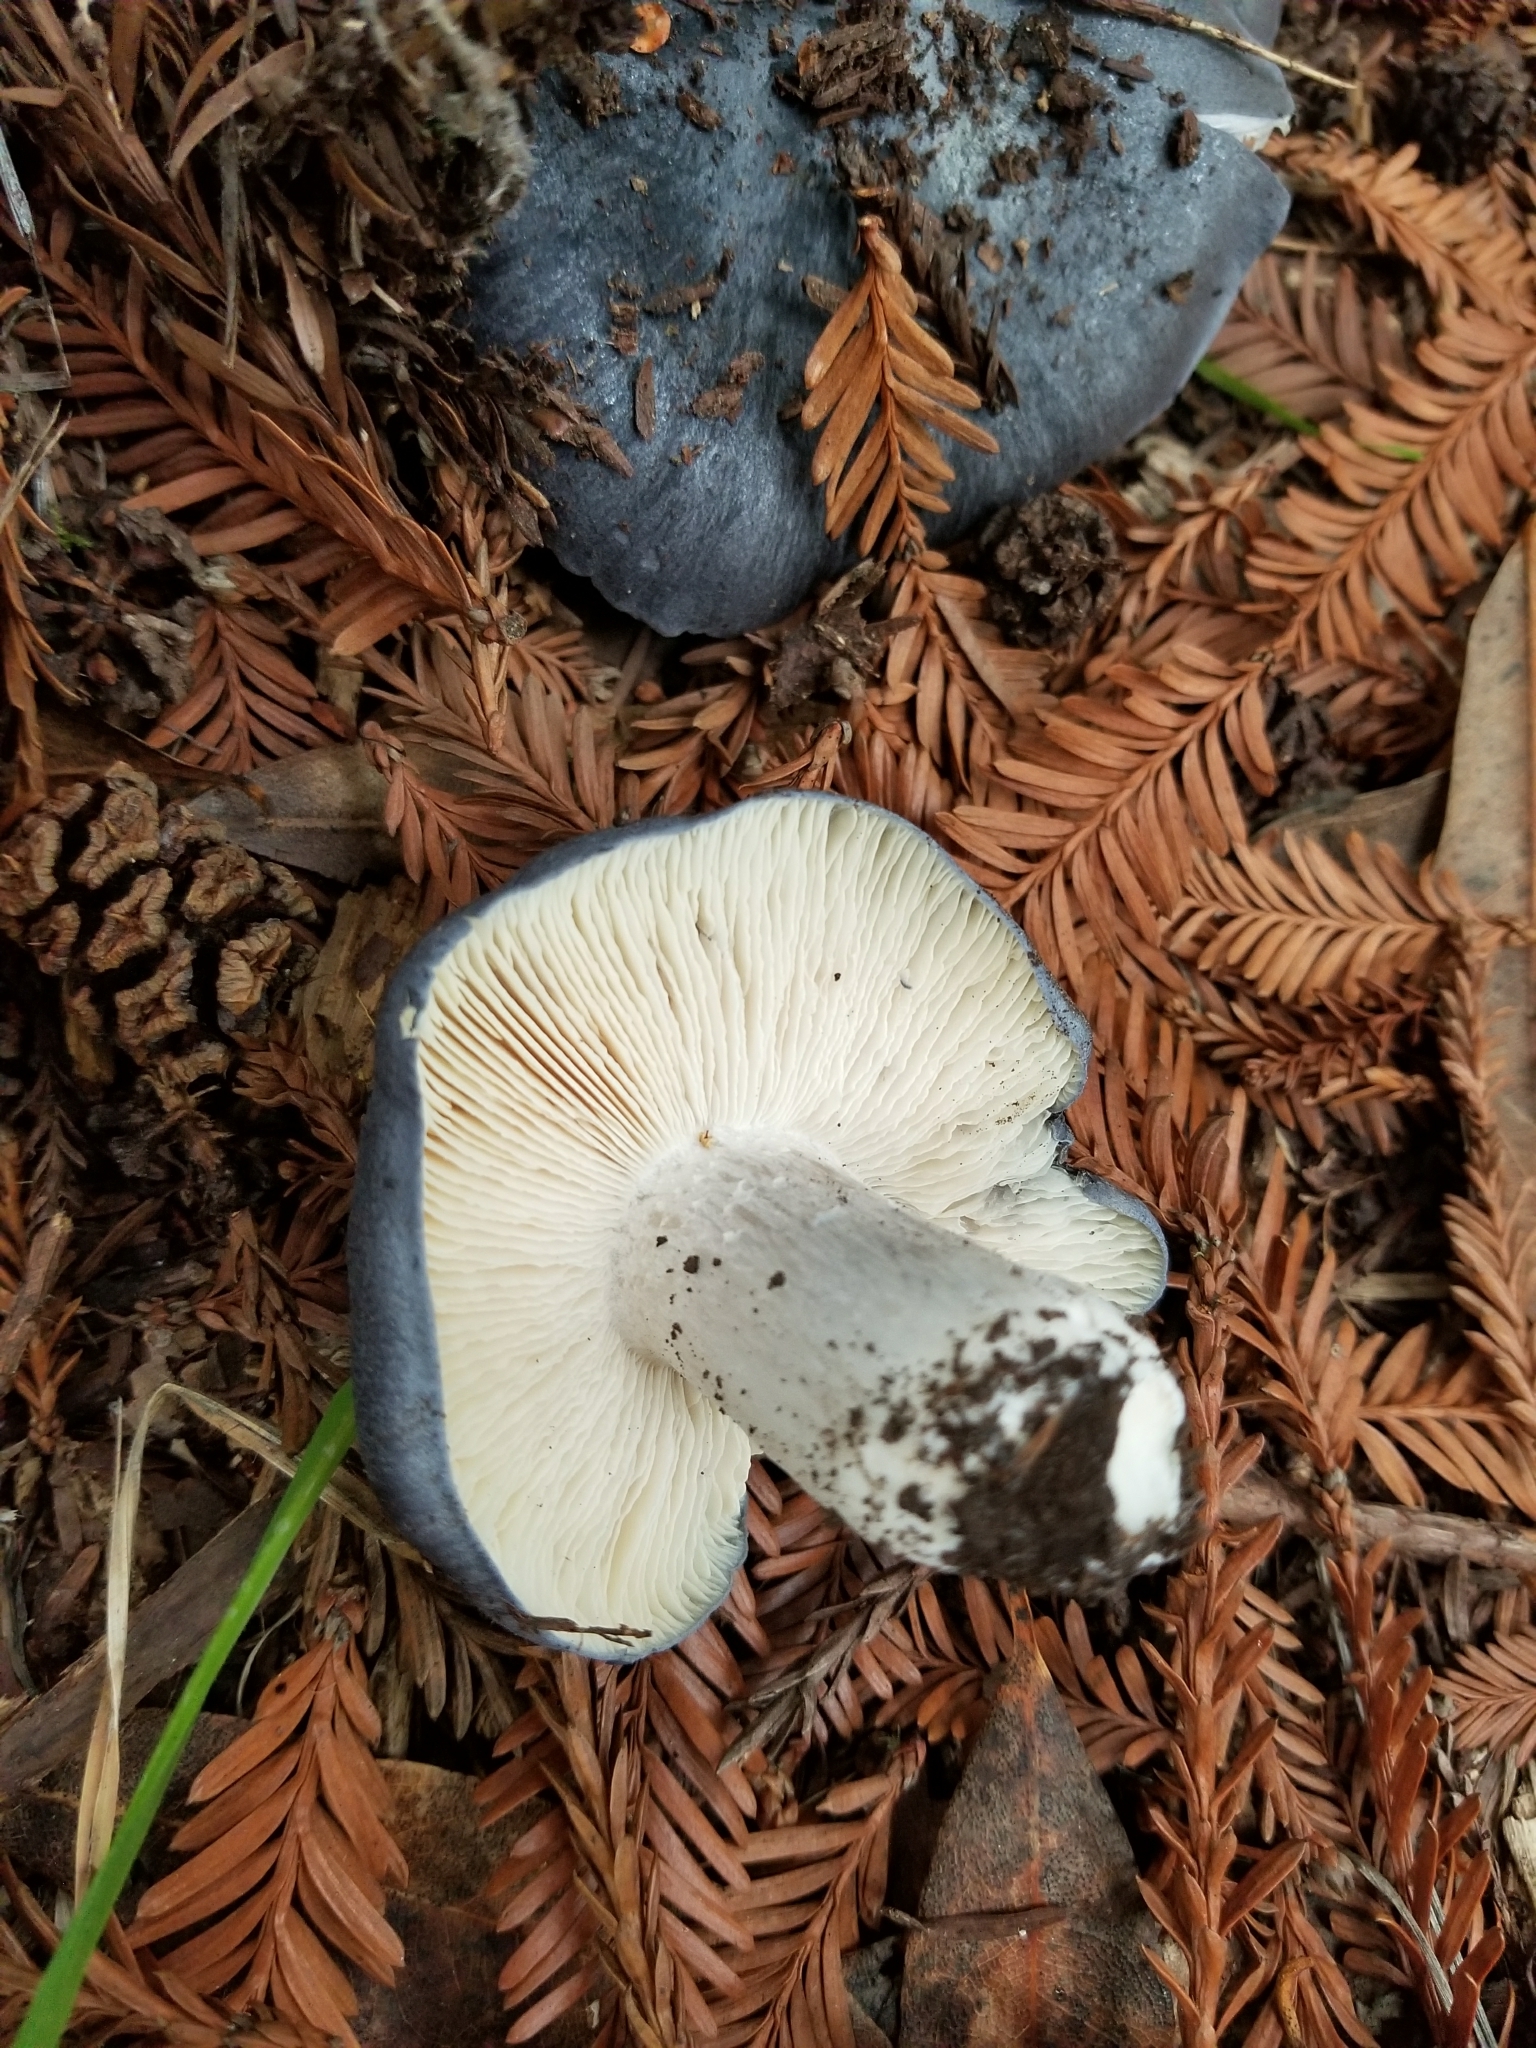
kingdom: Fungi
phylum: Basidiomycota
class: Agaricomycetes
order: Agaricales
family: Entolomataceae
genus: Entoloma
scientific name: Entoloma medianox
